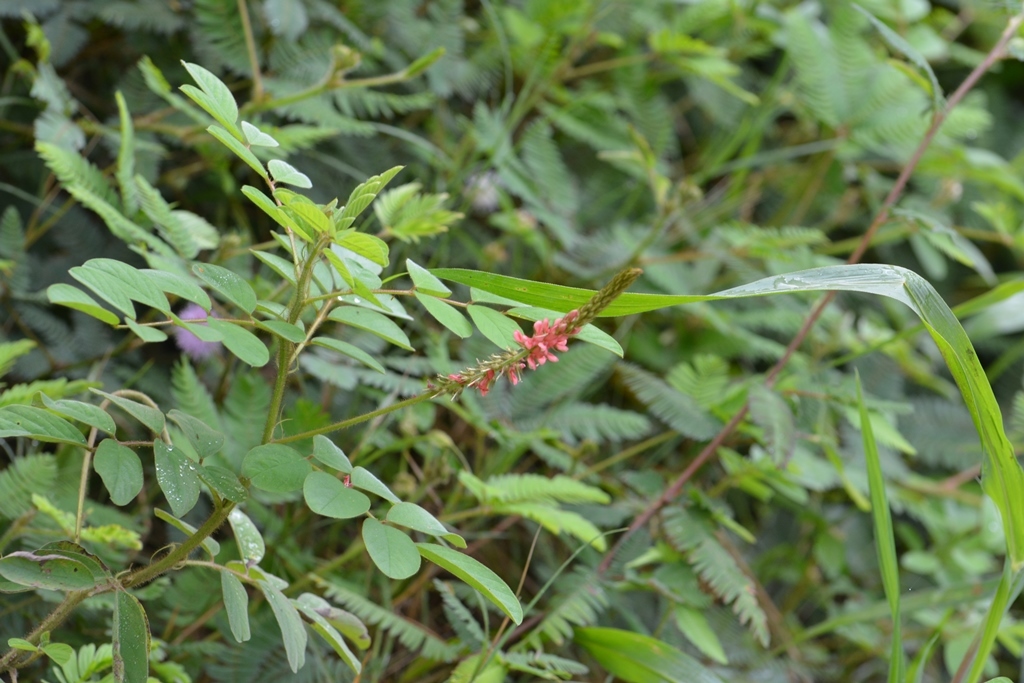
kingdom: Plantae
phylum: Tracheophyta
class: Magnoliopsida
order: Fabales
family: Fabaceae
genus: Indigofera
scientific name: Indigofera suffruticosa
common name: Anil de pasto
